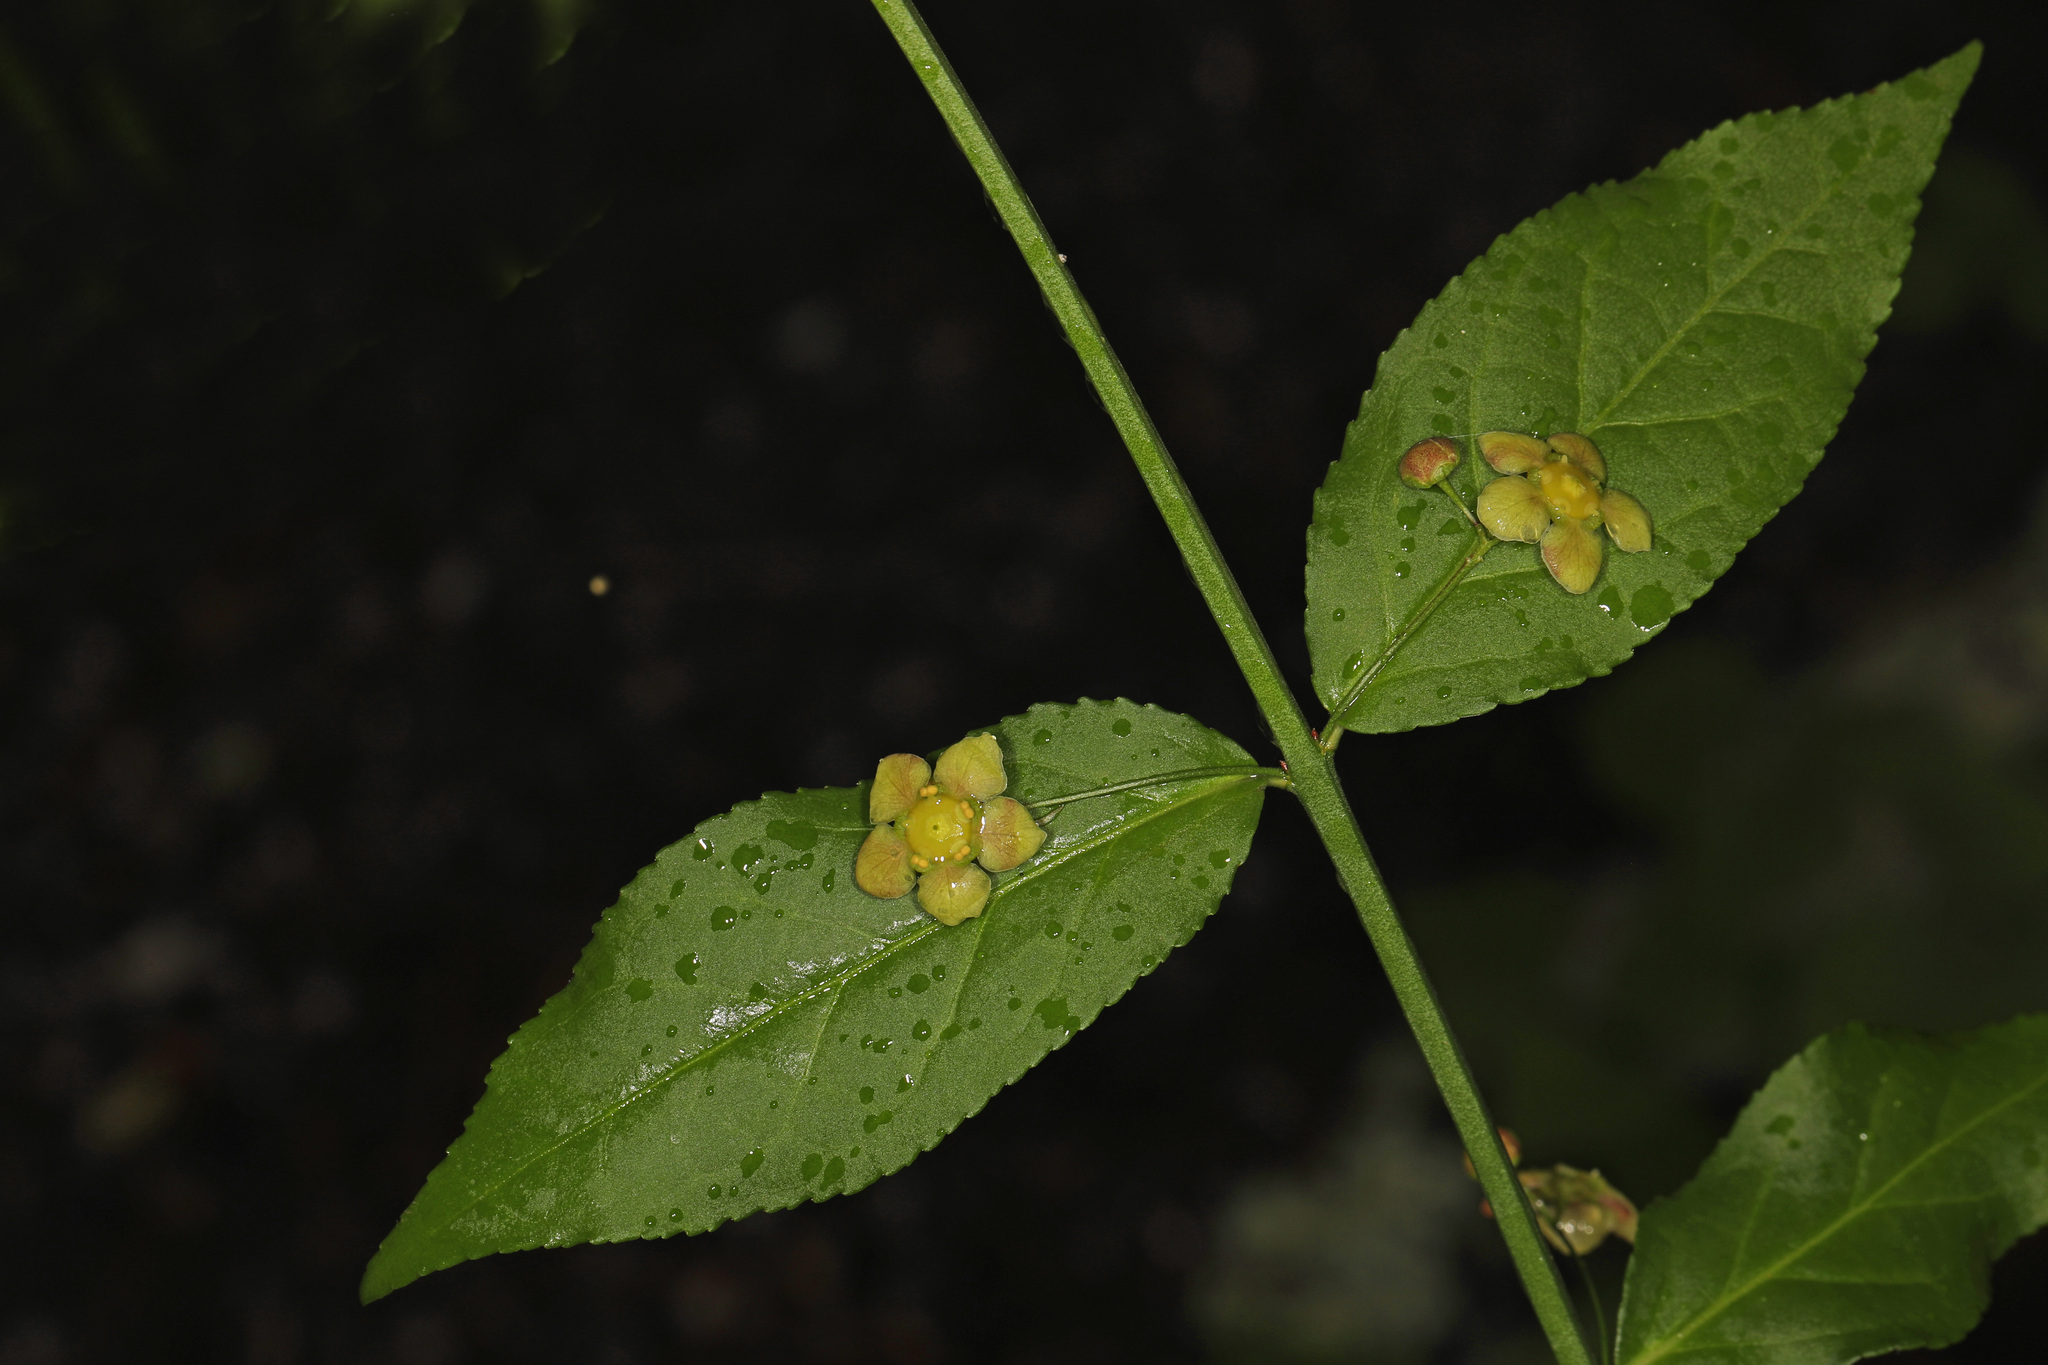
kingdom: Plantae
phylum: Tracheophyta
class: Magnoliopsida
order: Celastrales
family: Celastraceae
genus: Euonymus
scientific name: Euonymus americanus
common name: Bursting-heart
